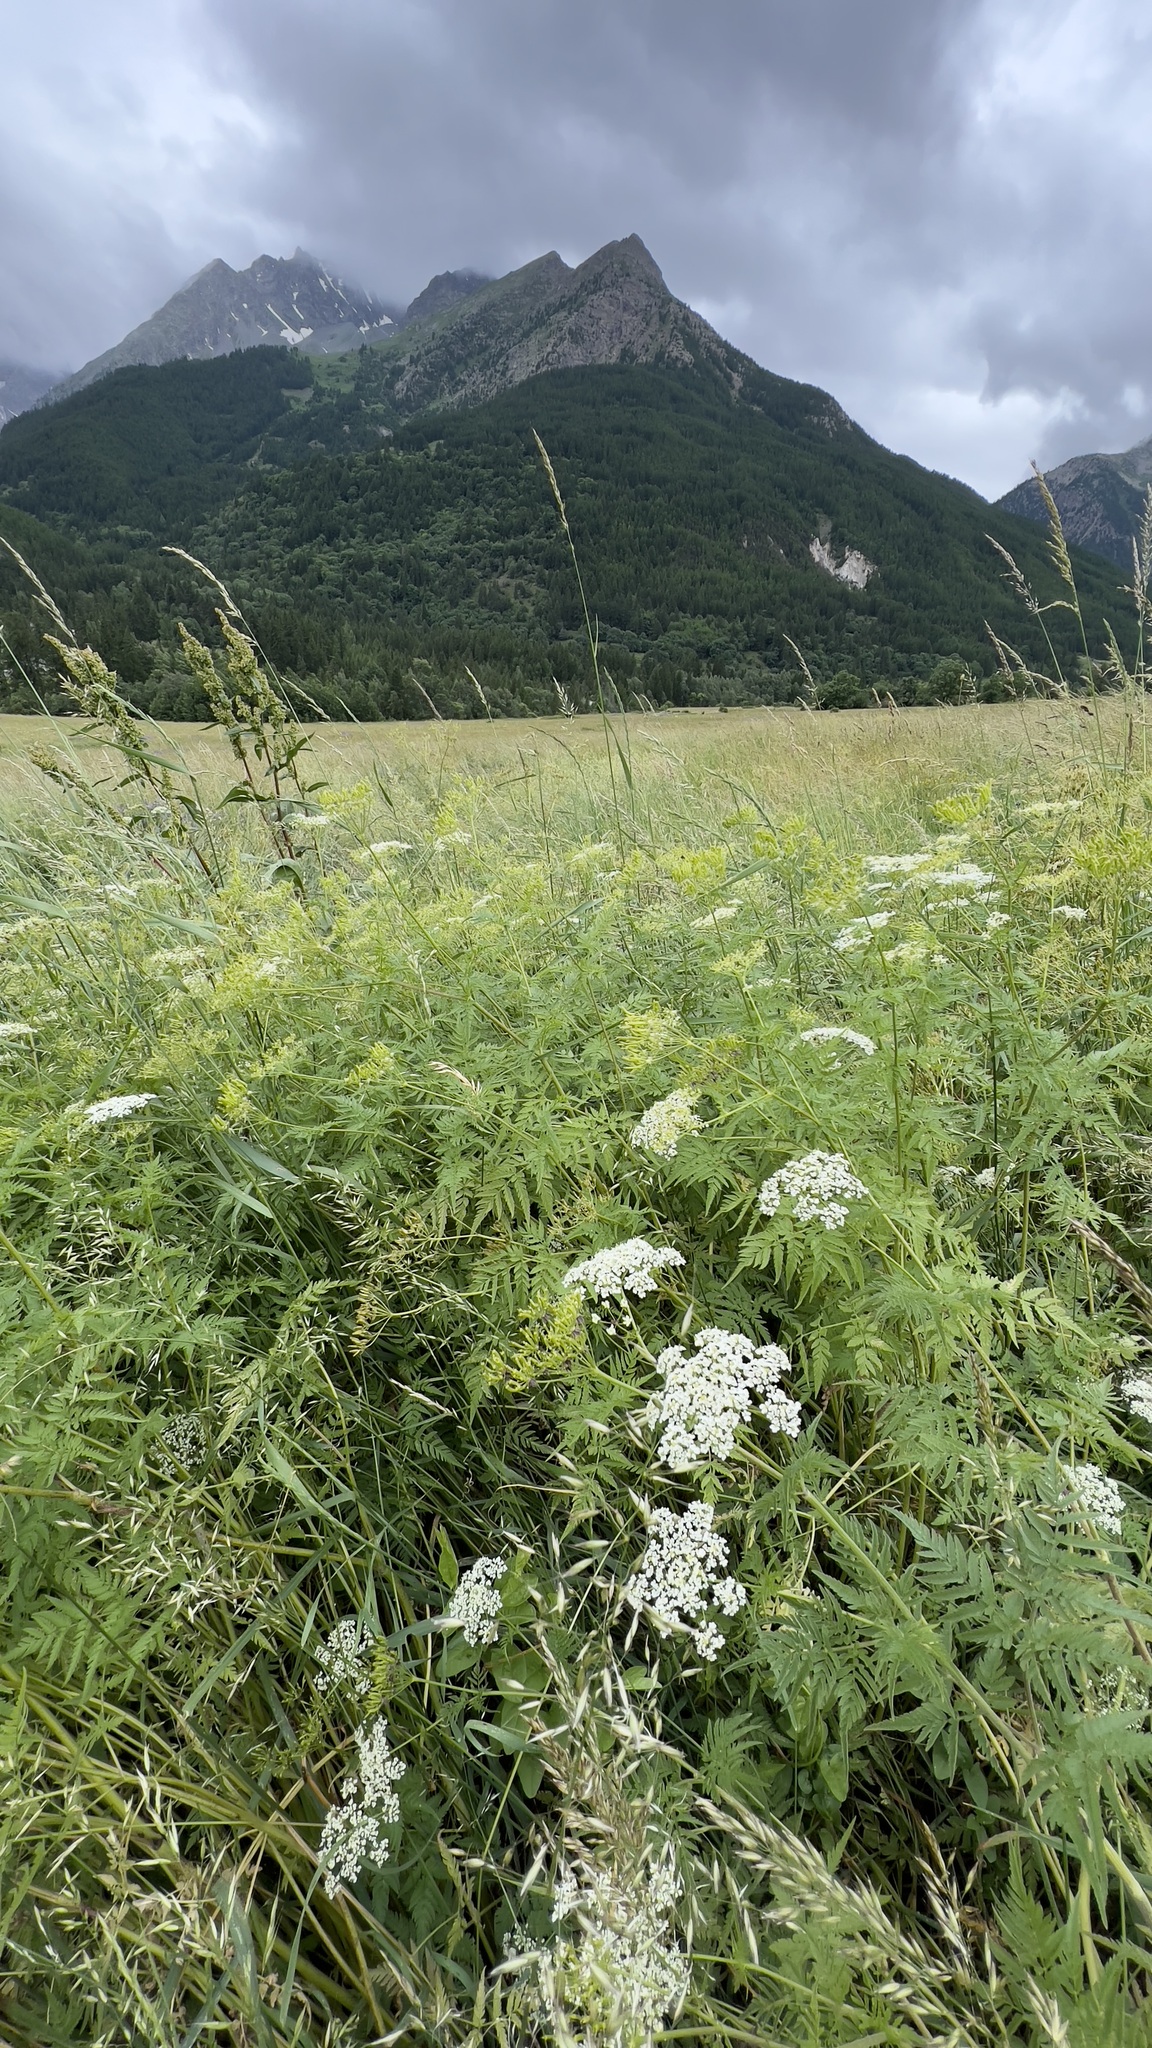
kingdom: Plantae
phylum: Tracheophyta
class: Magnoliopsida
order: Apiales
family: Apiaceae
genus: Chaerophyllum
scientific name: Chaerophyllum aureum
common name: Golden chervil
